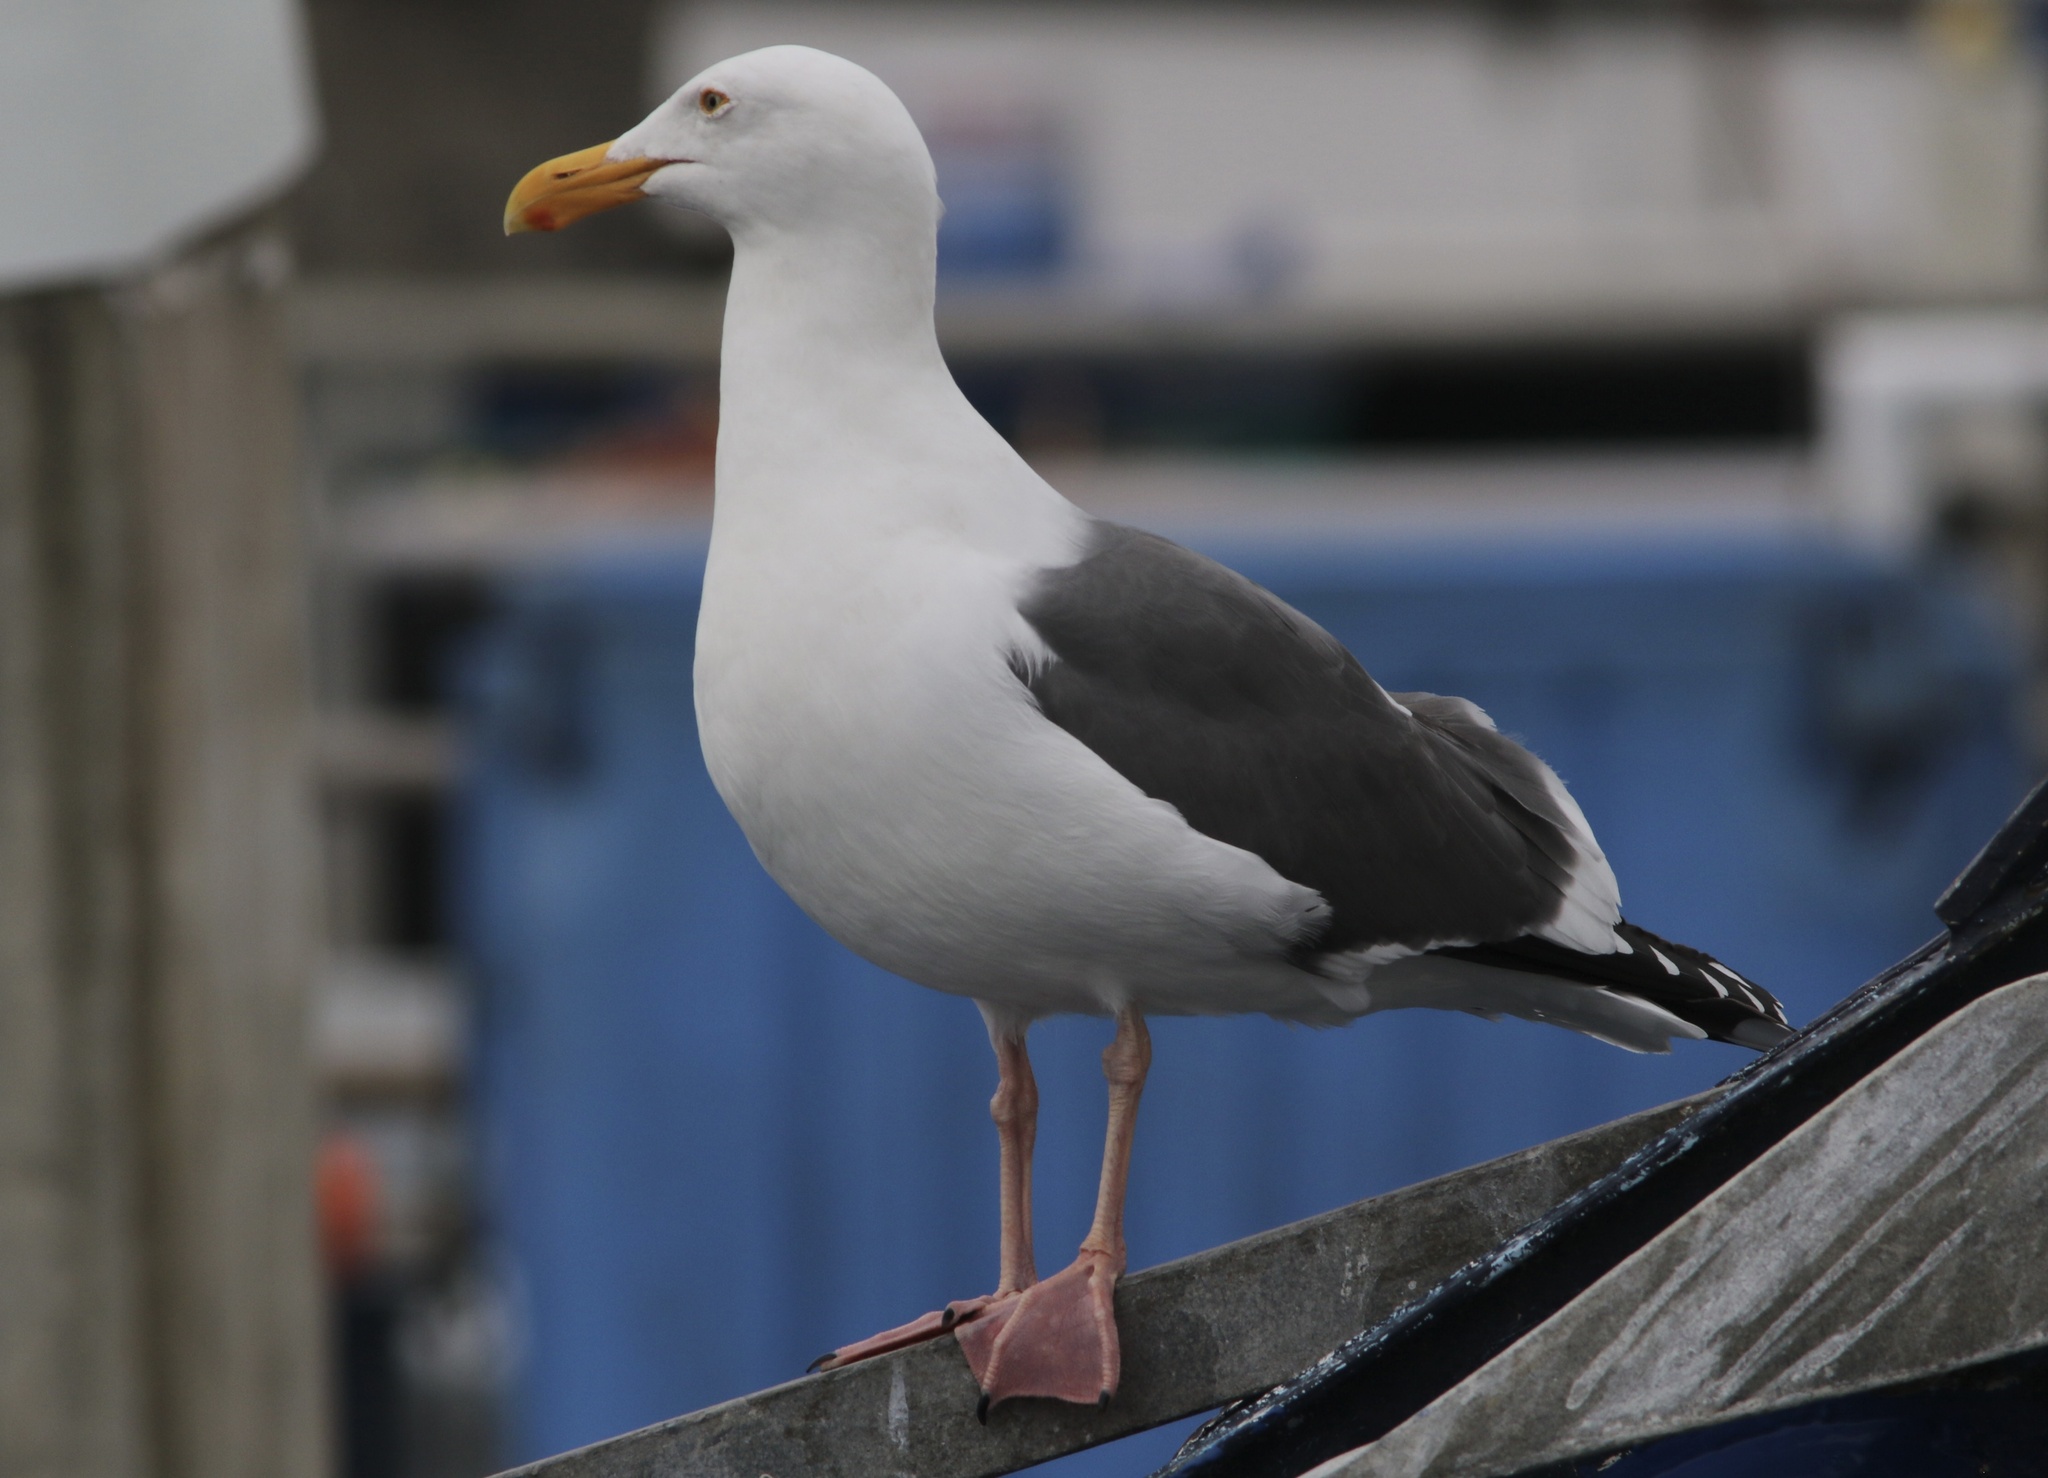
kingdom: Animalia
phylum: Chordata
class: Aves
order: Charadriiformes
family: Laridae
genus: Larus
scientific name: Larus occidentalis
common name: Western gull
